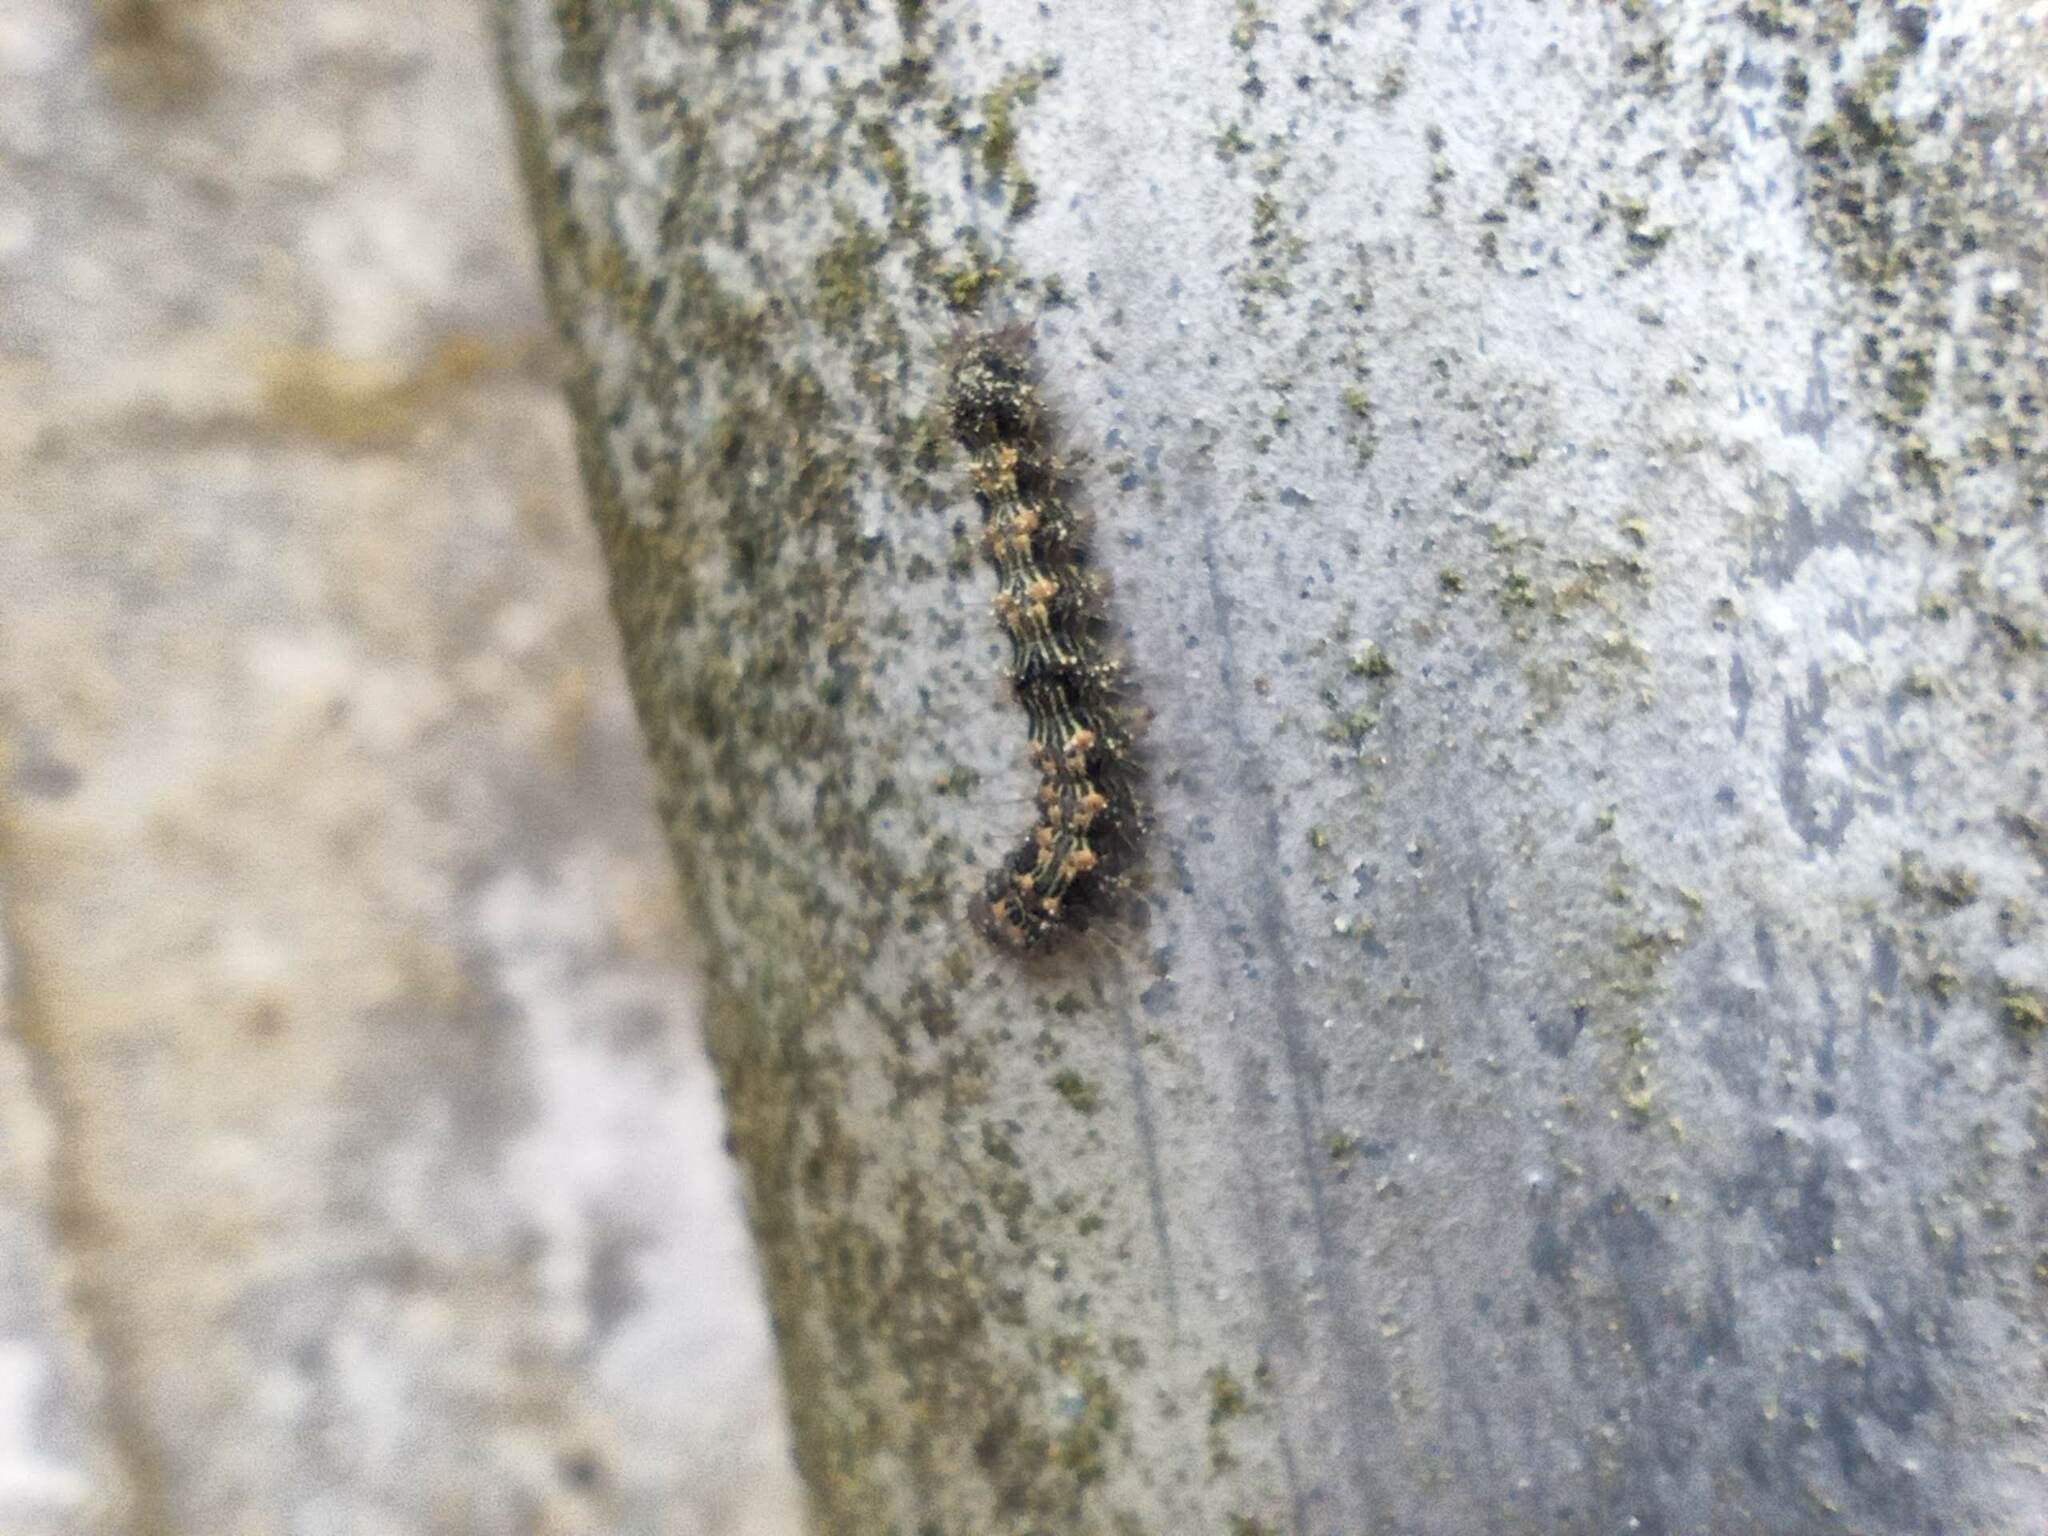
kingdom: Animalia
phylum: Arthropoda
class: Insecta
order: Lepidoptera
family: Erebidae
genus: Lithosia
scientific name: Lithosia quadra
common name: Four-spotted footman
